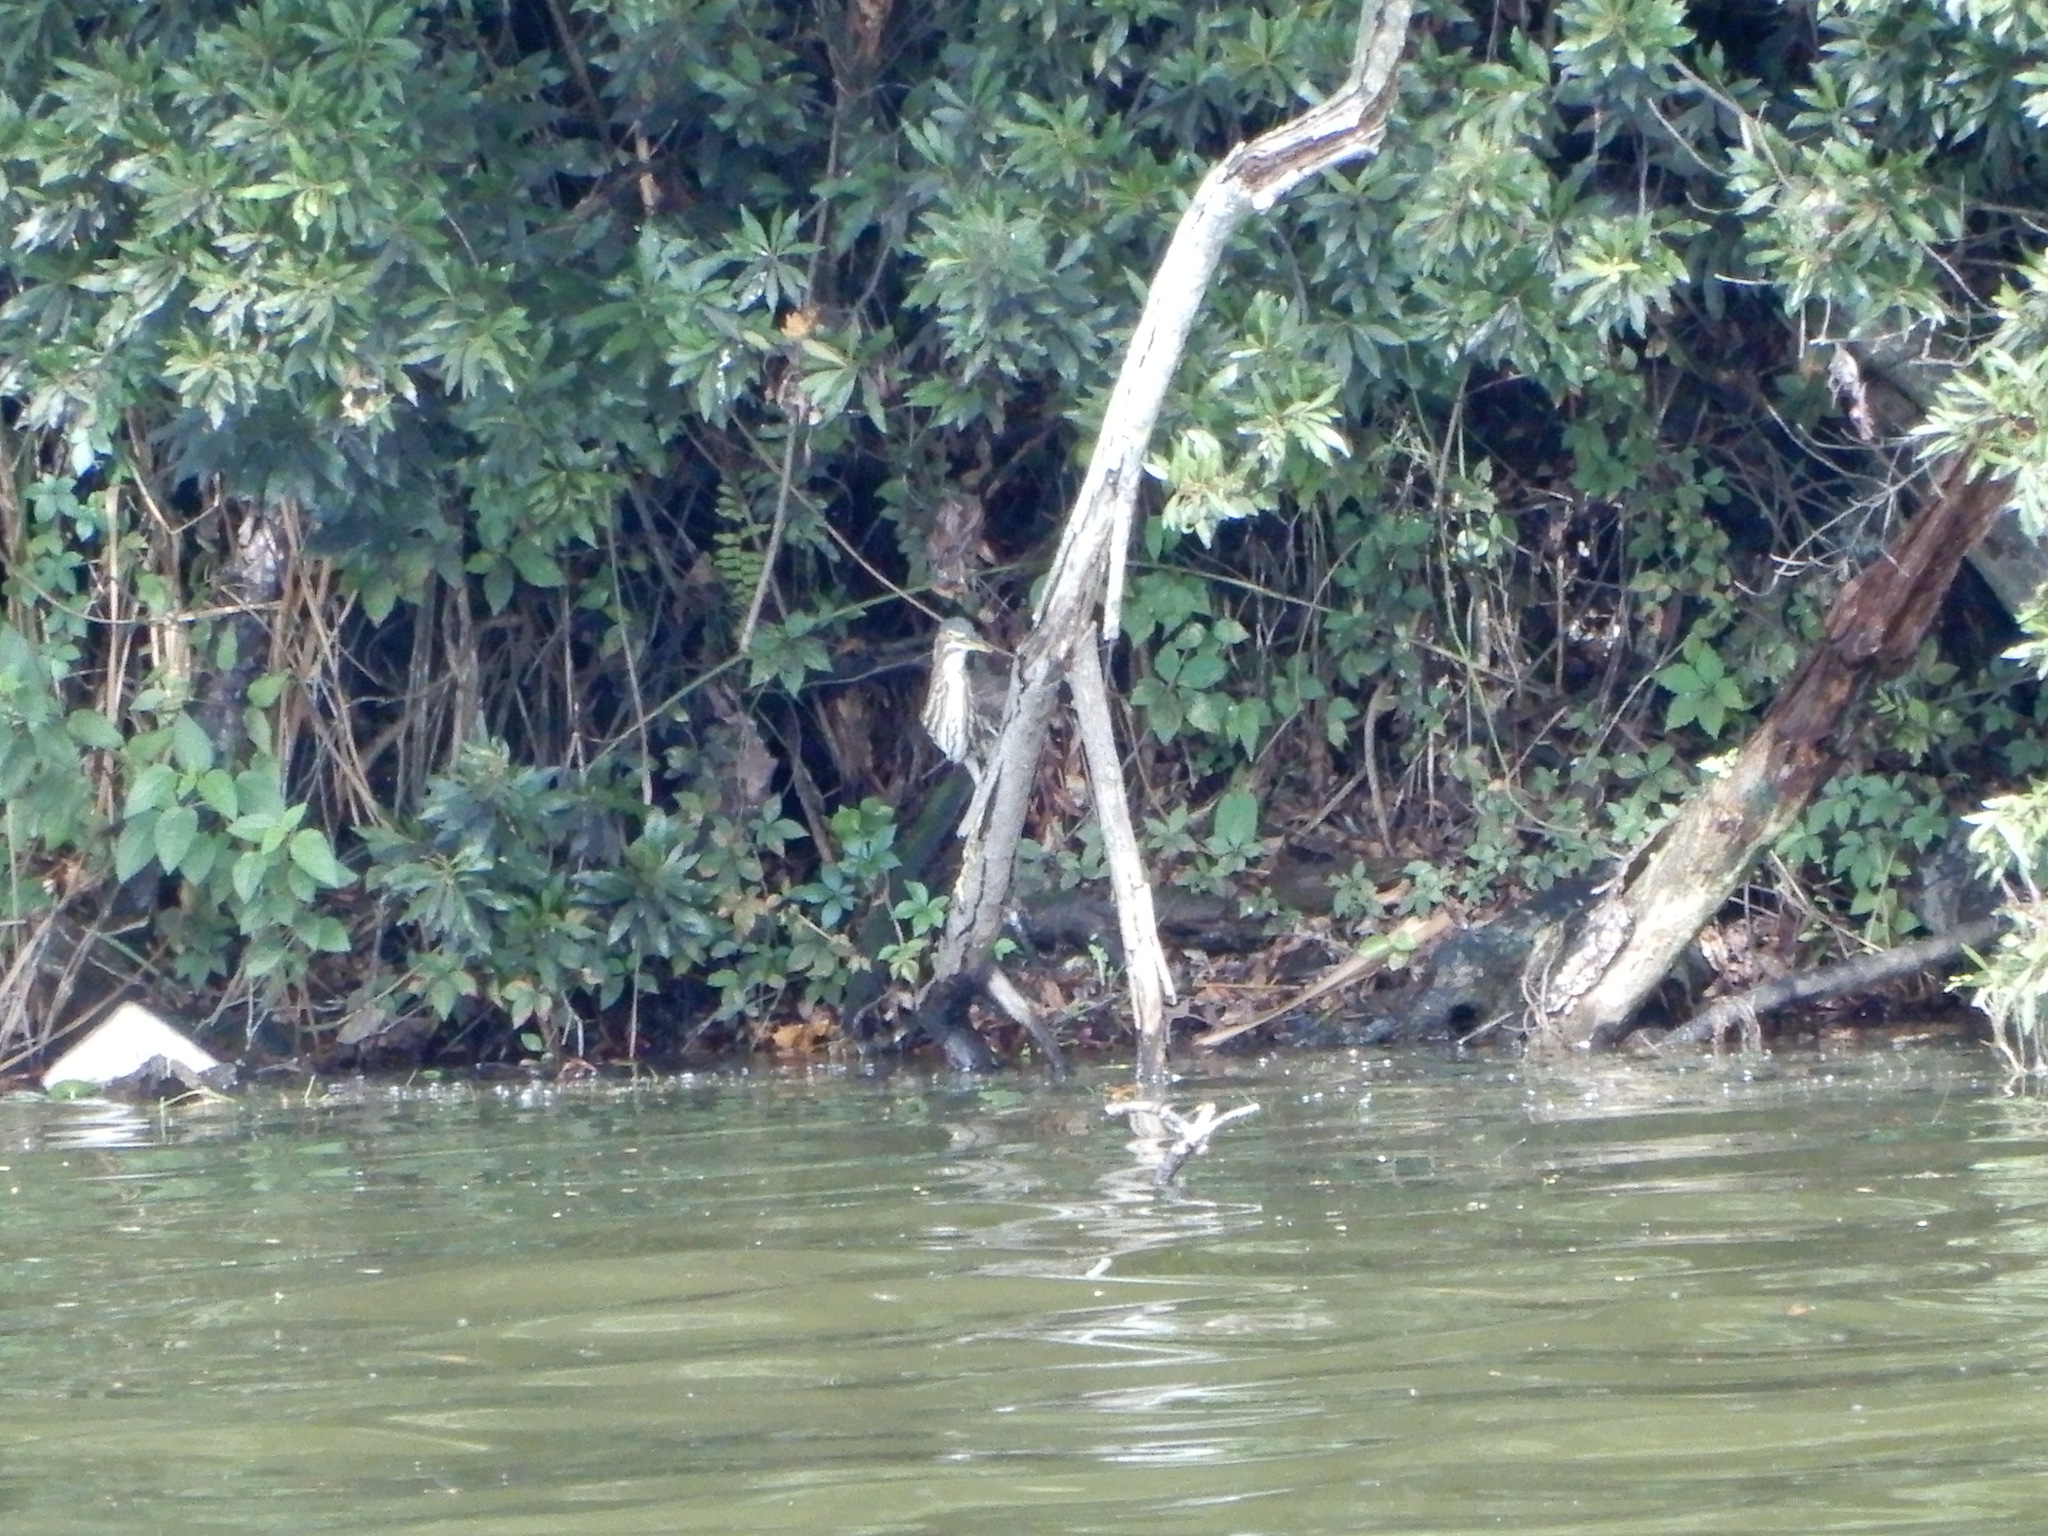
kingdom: Animalia
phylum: Chordata
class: Aves
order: Pelecaniformes
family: Ardeidae
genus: Butorides
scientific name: Butorides virescens
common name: Green heron
